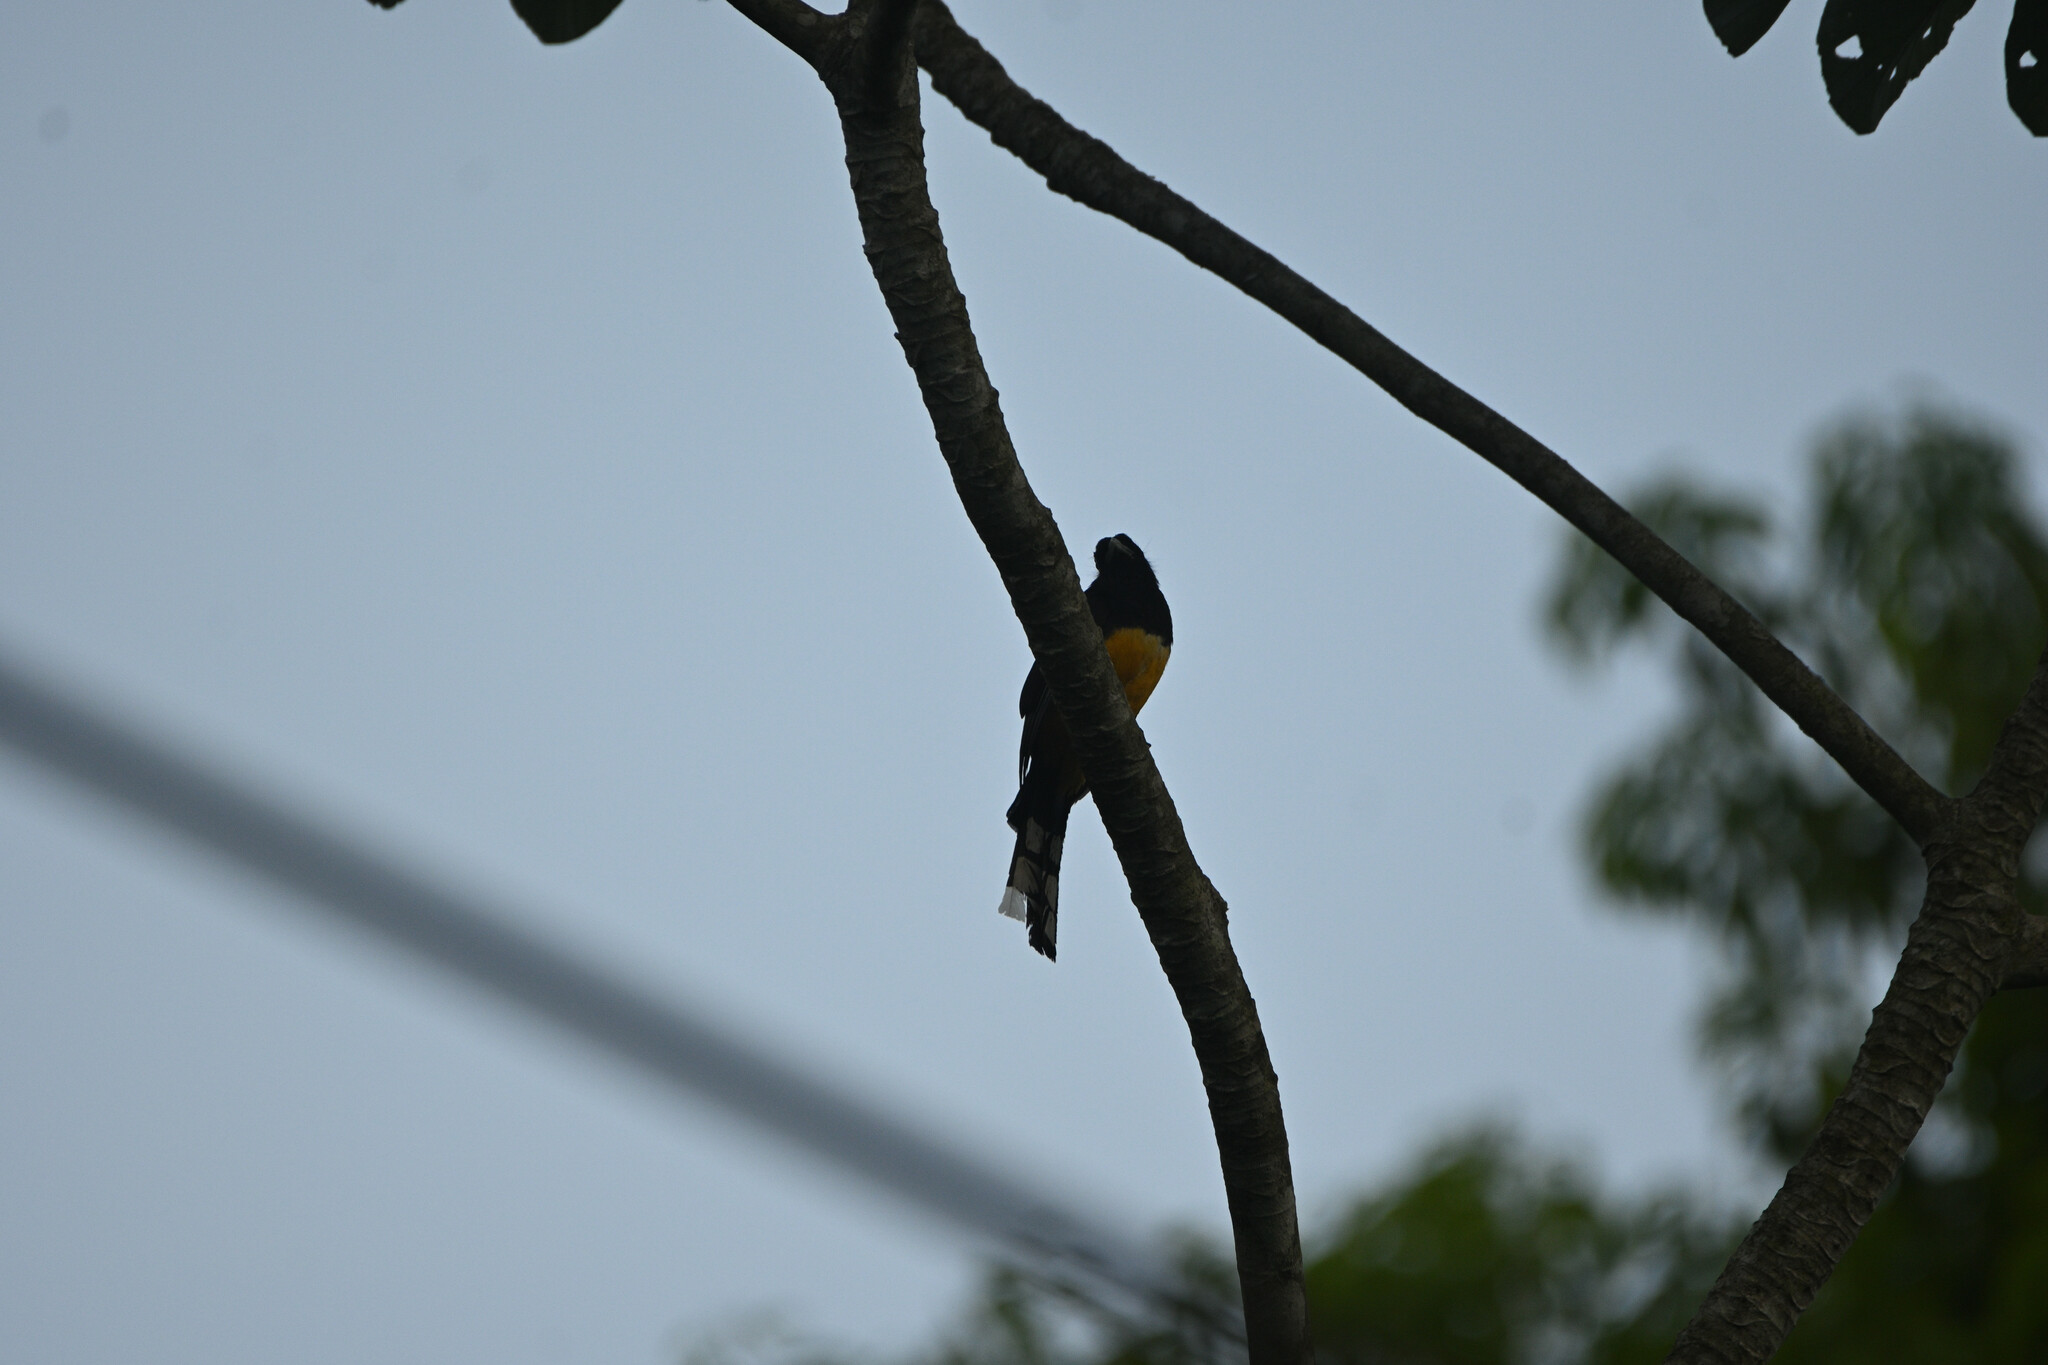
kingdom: Animalia
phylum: Chordata
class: Aves
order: Trogoniformes
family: Trogonidae
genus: Trogon
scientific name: Trogon melanocephalus
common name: Black-headed trogon
